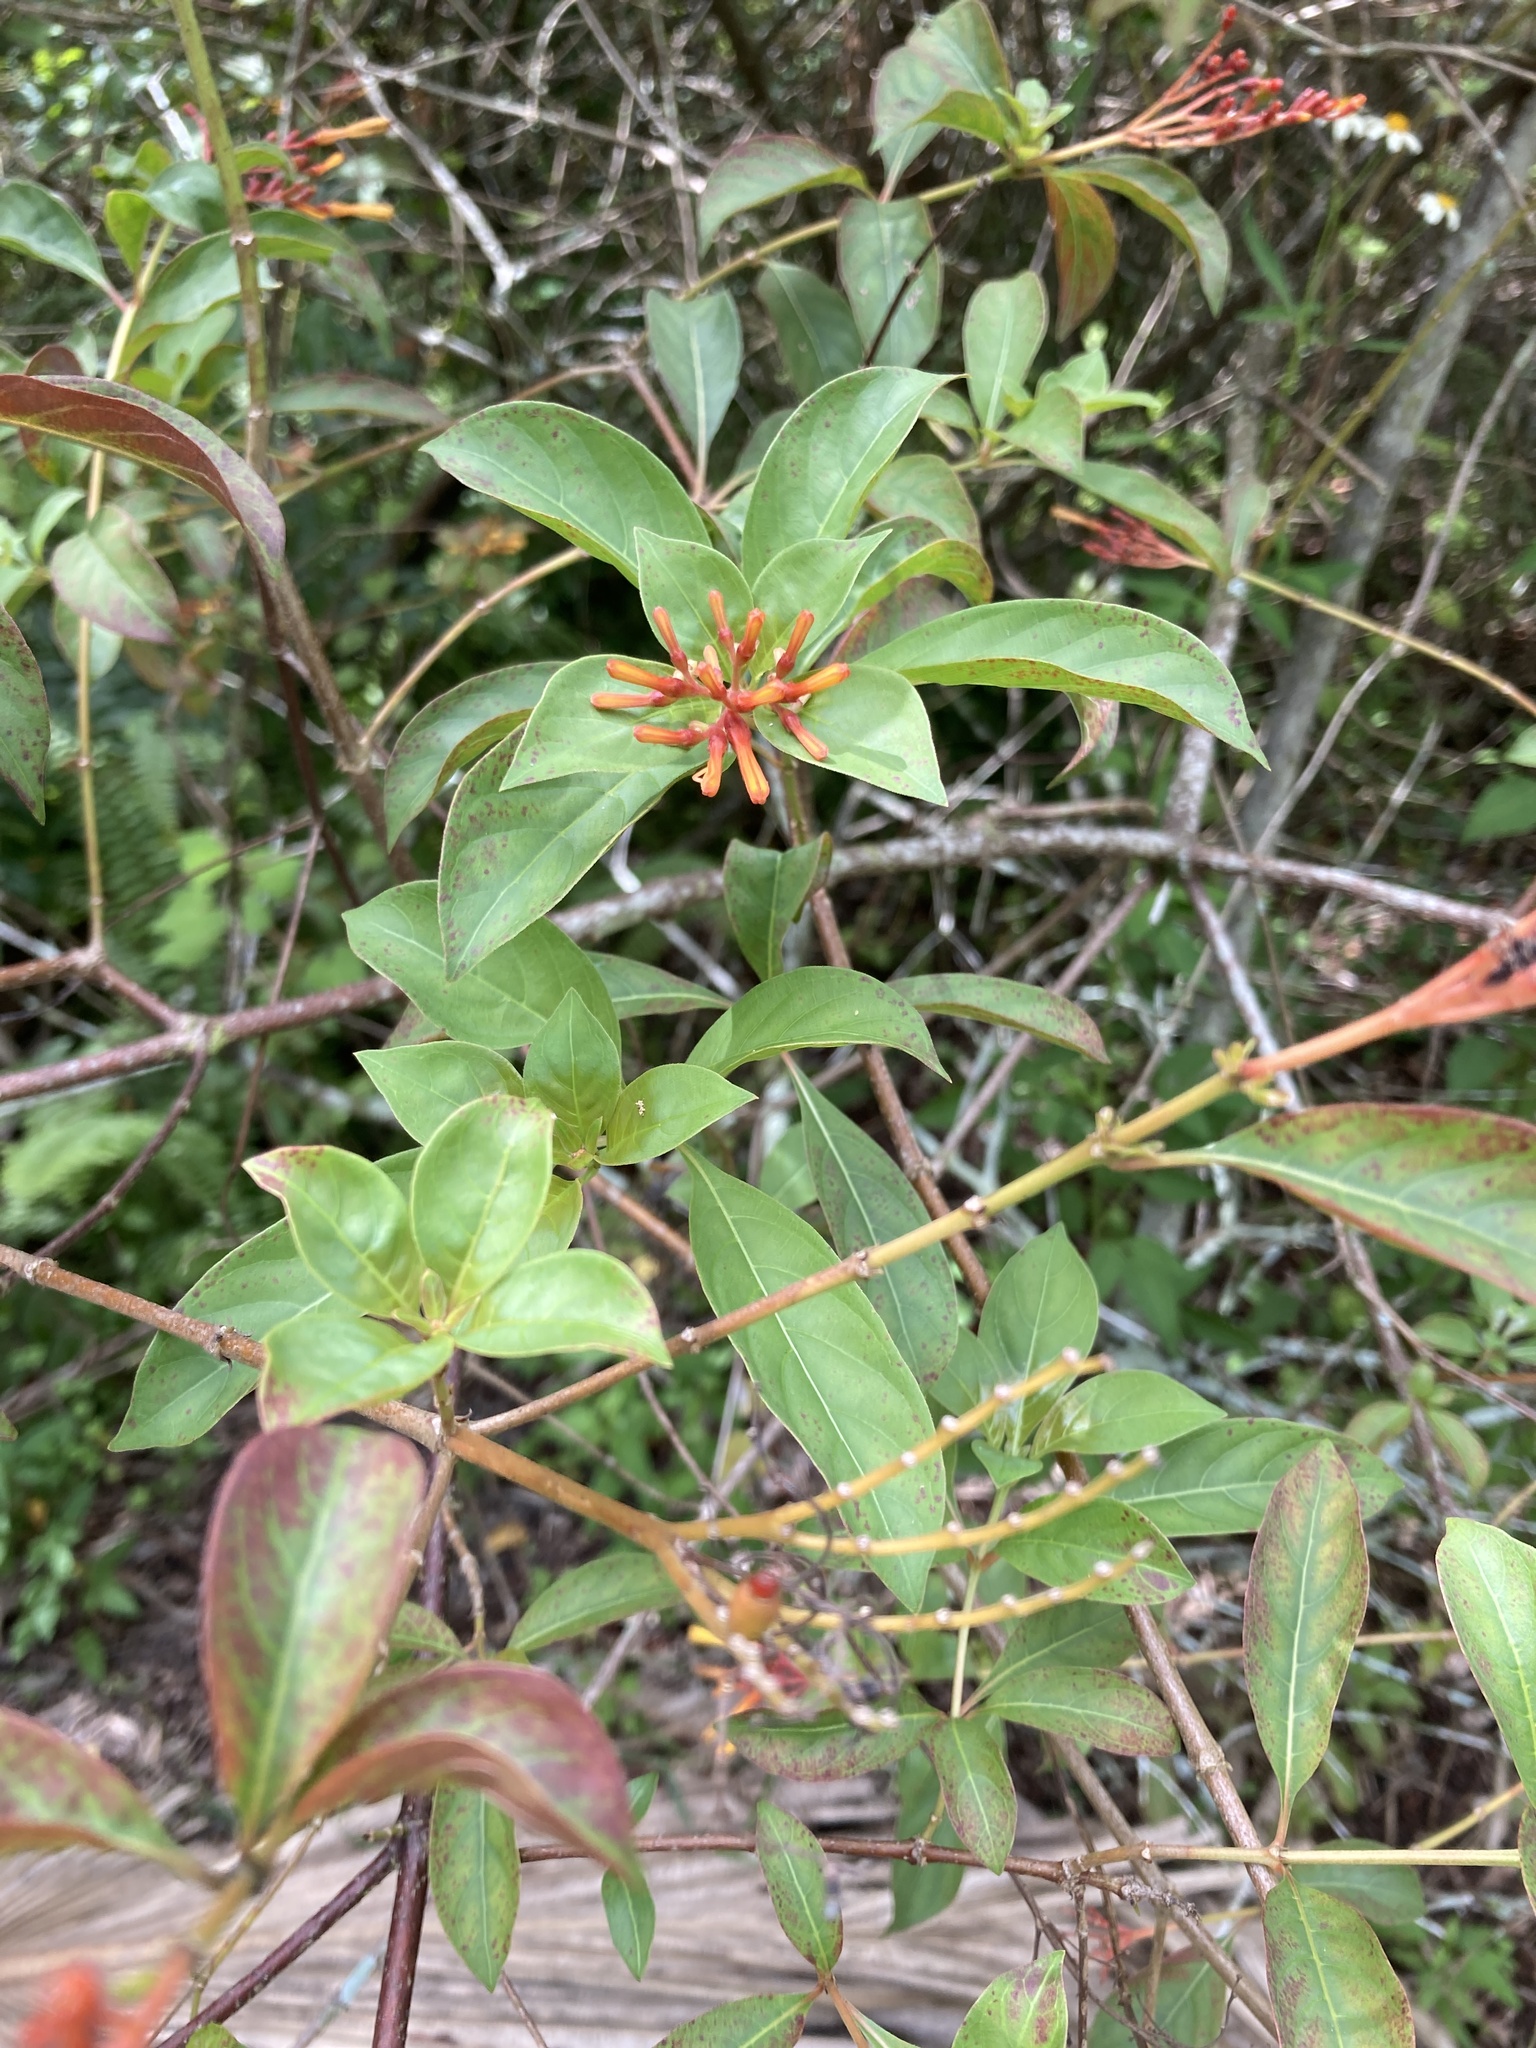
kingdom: Plantae
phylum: Tracheophyta
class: Magnoliopsida
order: Gentianales
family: Rubiaceae
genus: Hamelia
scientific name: Hamelia patens
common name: Redhead
